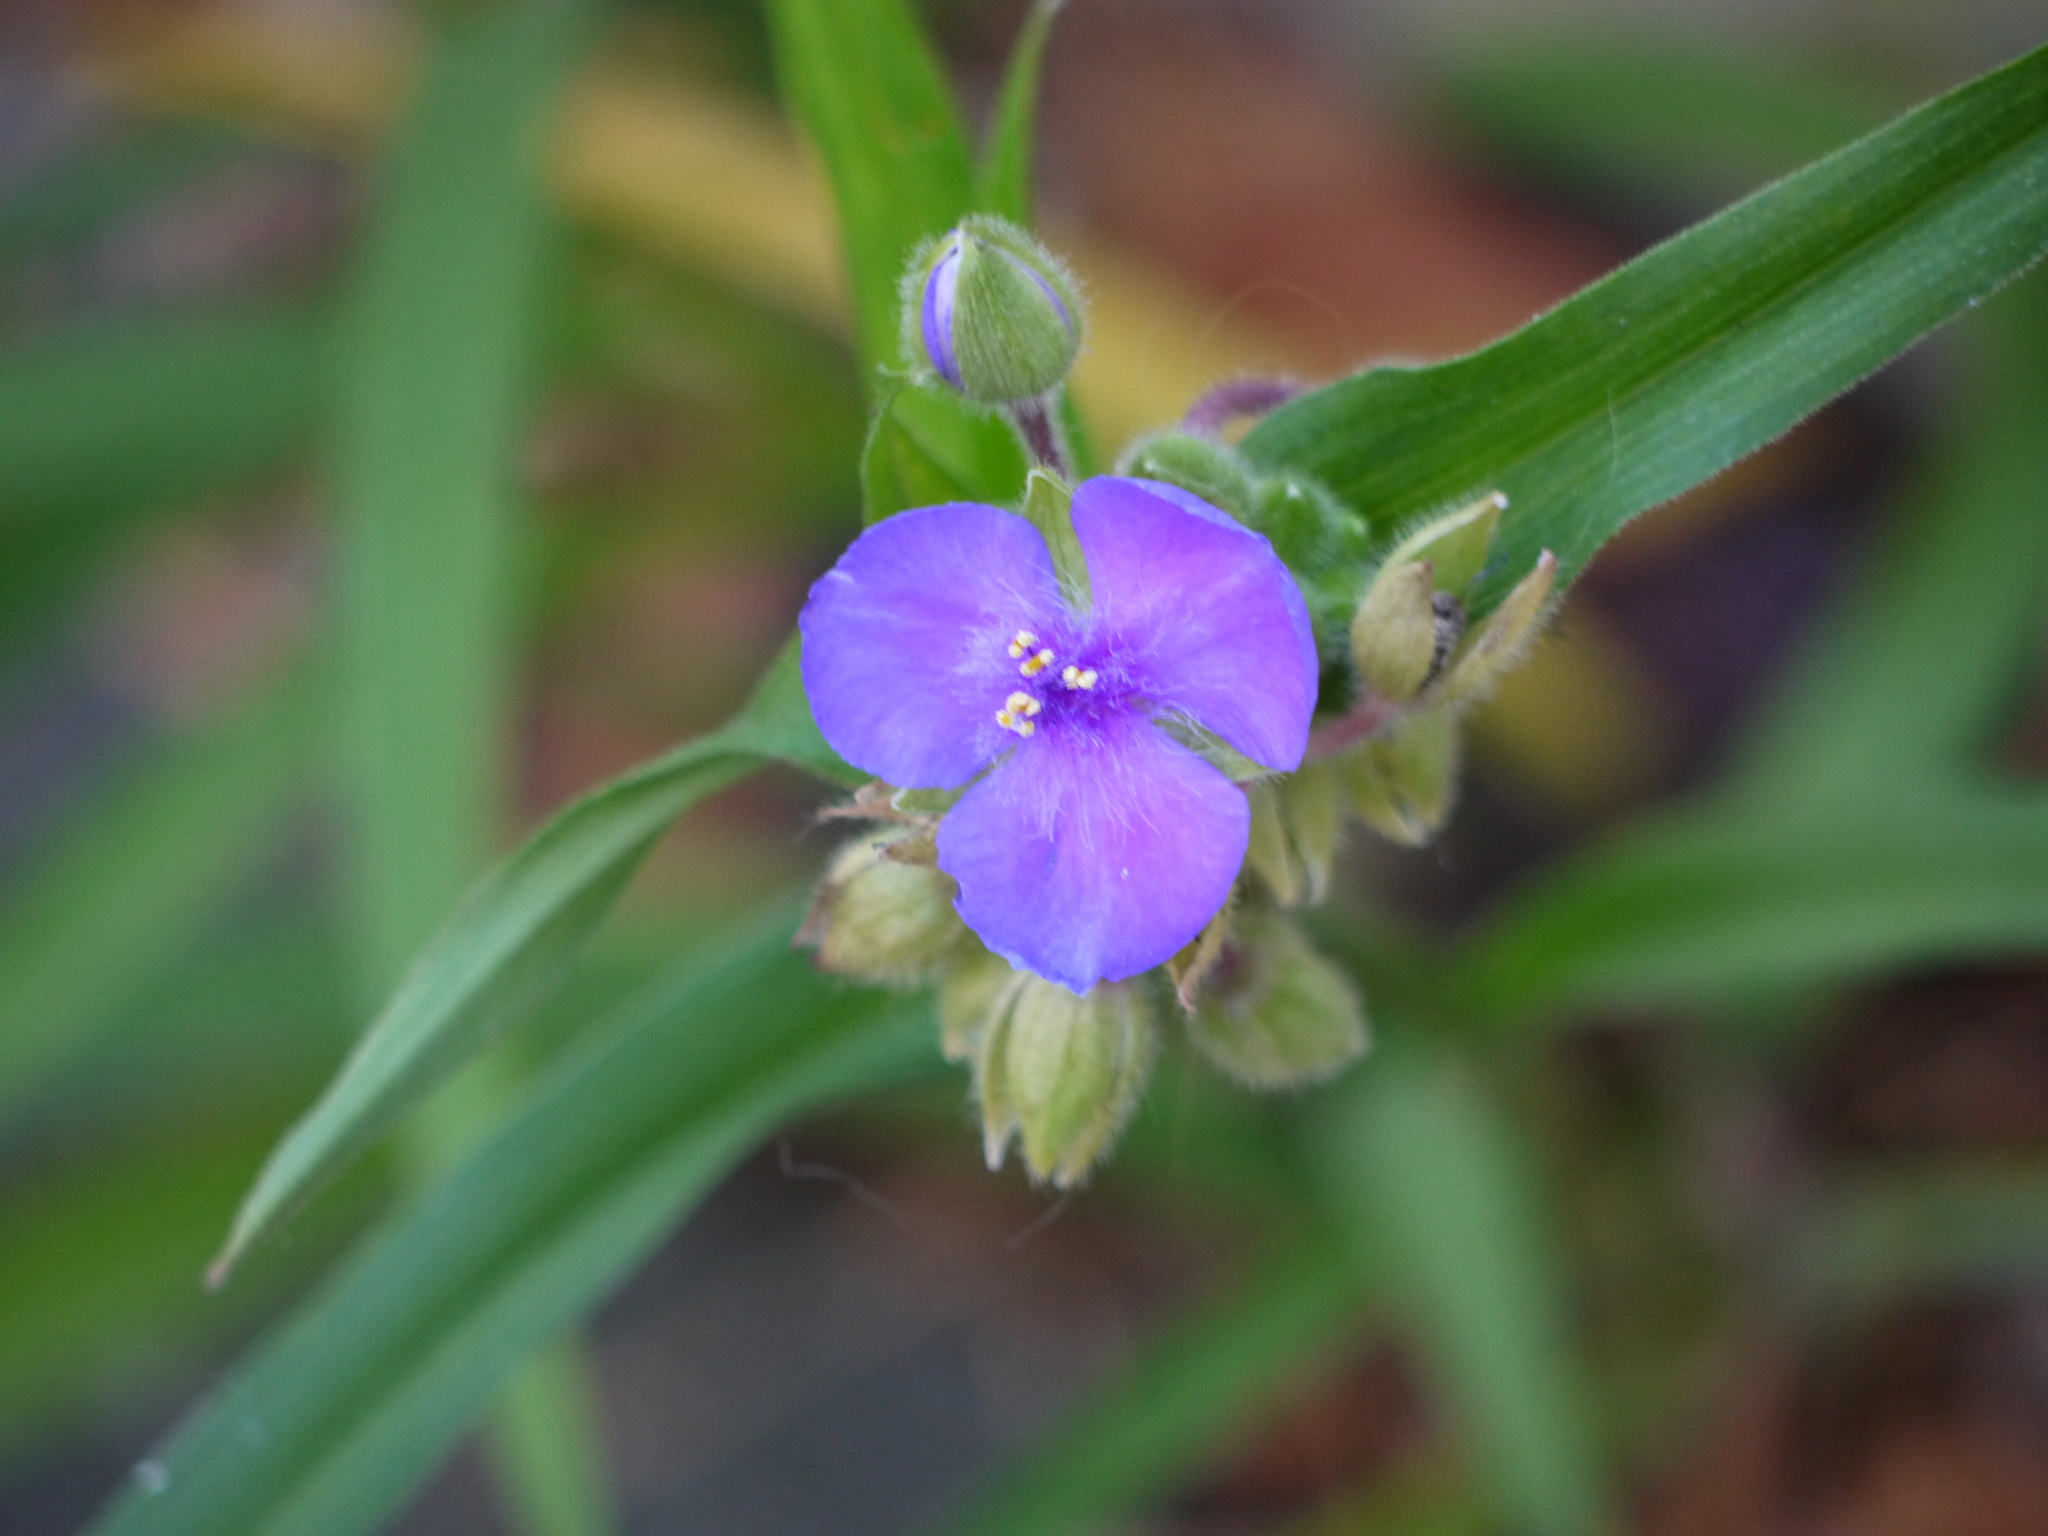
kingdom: Plantae
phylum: Tracheophyta
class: Liliopsida
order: Commelinales
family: Commelinaceae
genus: Tradescantia
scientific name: Tradescantia andersoniana
